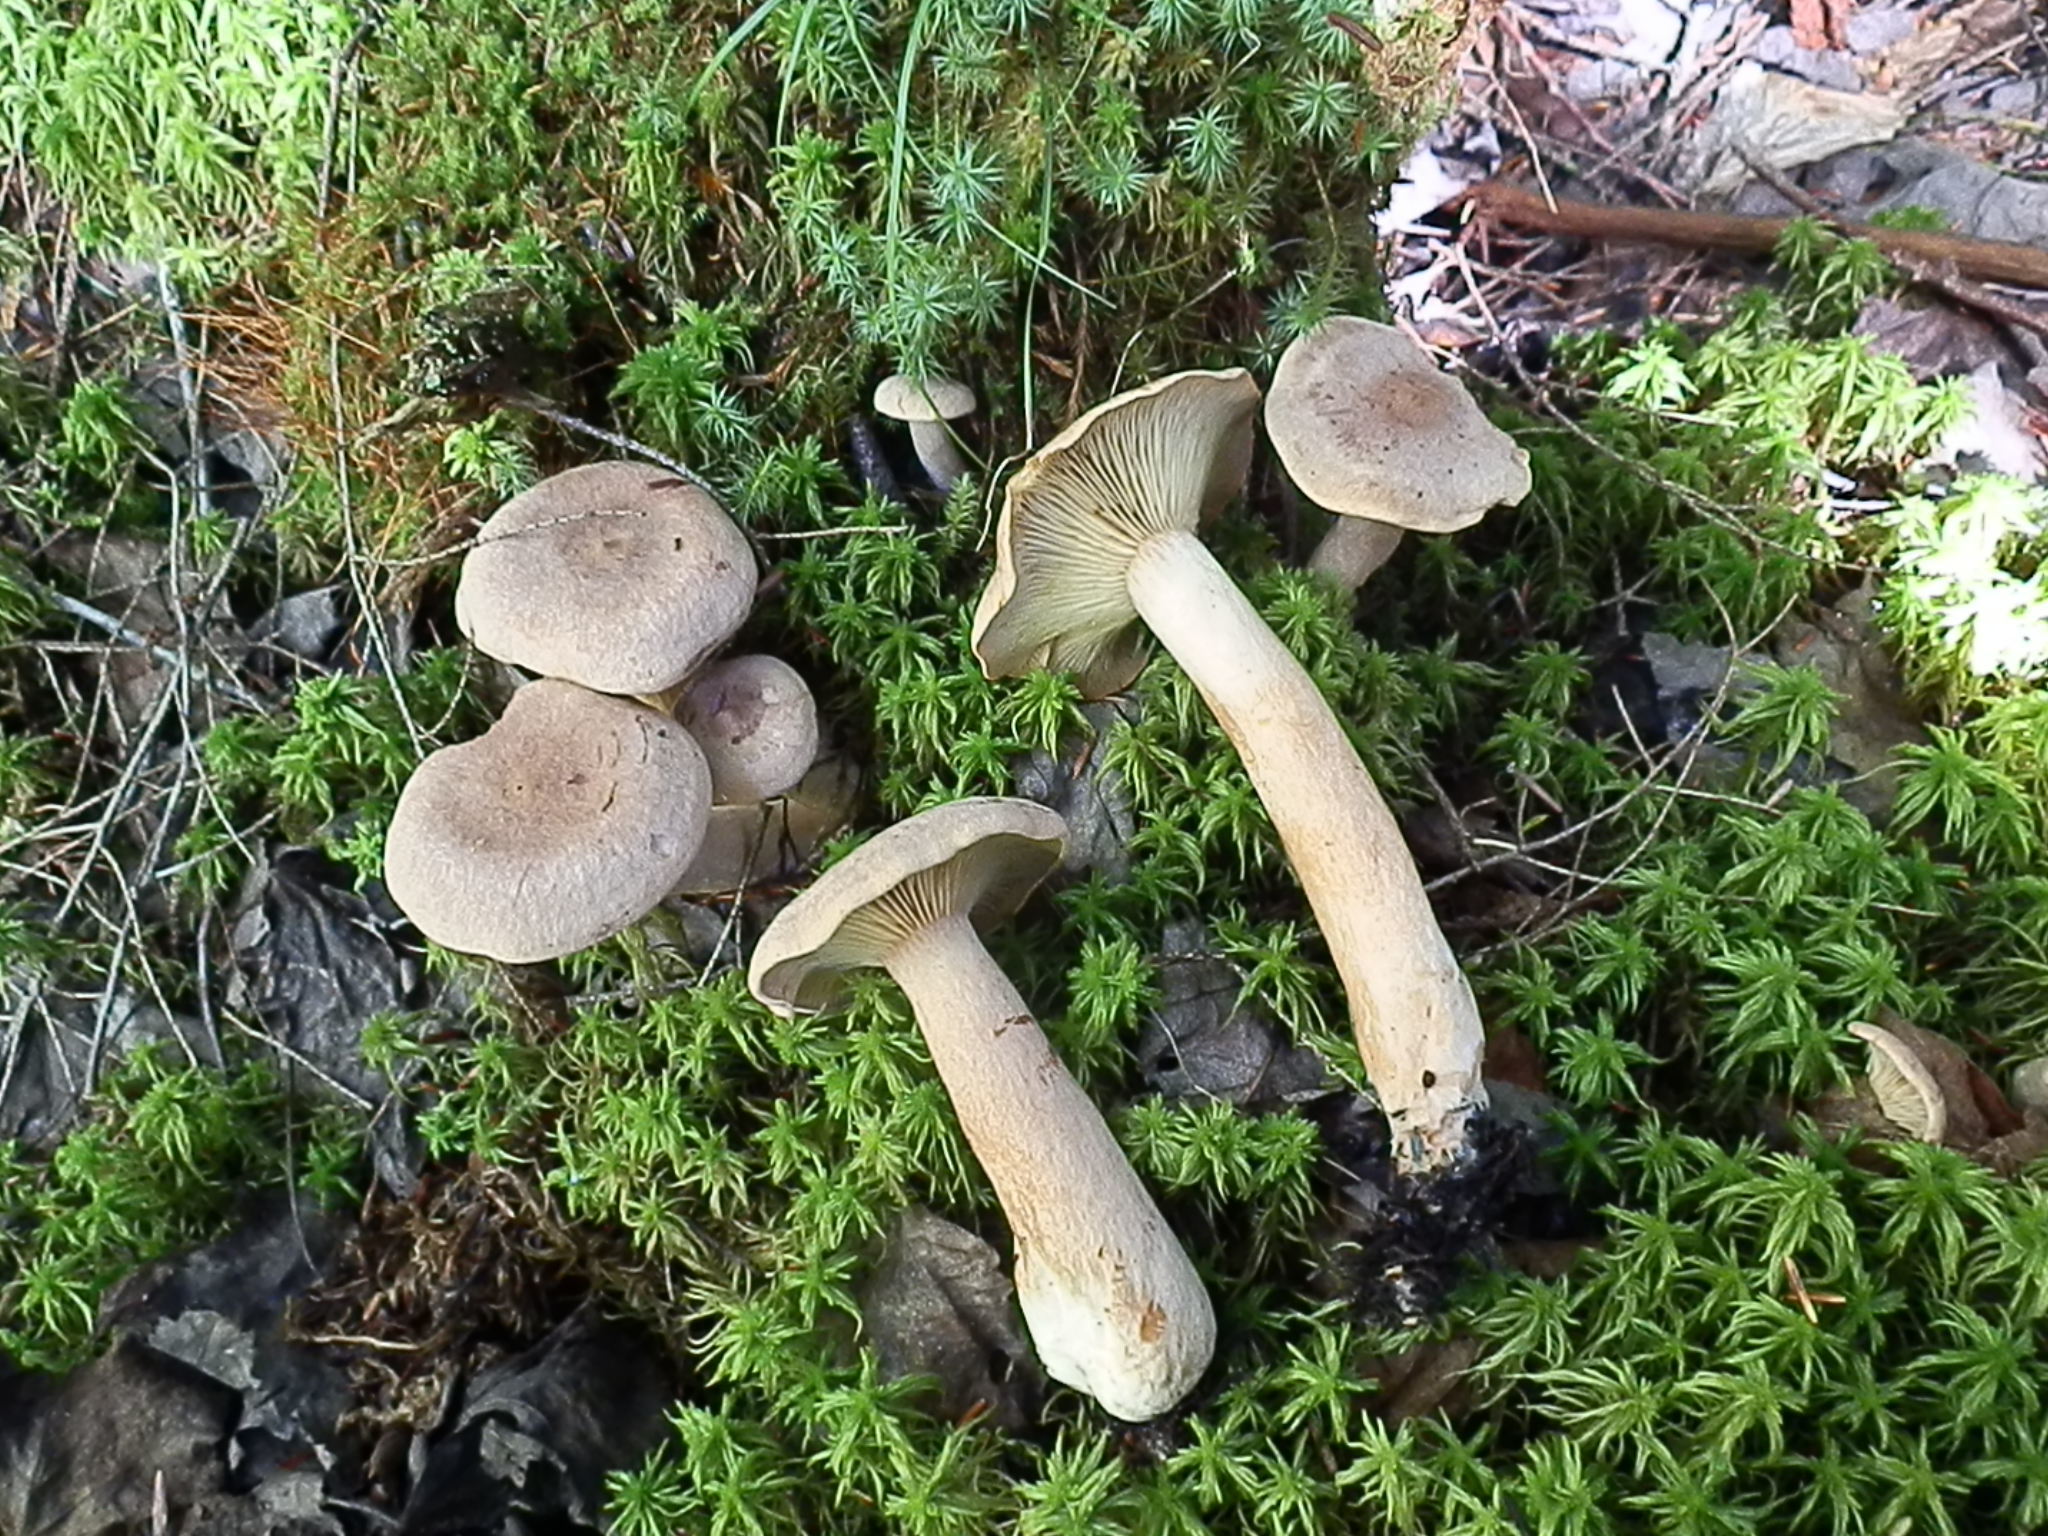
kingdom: Fungi
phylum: Basidiomycota
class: Agaricomycetes
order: Russulales
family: Russulaceae
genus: Lactarius
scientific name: Lactarius helvus
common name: Fenugreek milkcap
